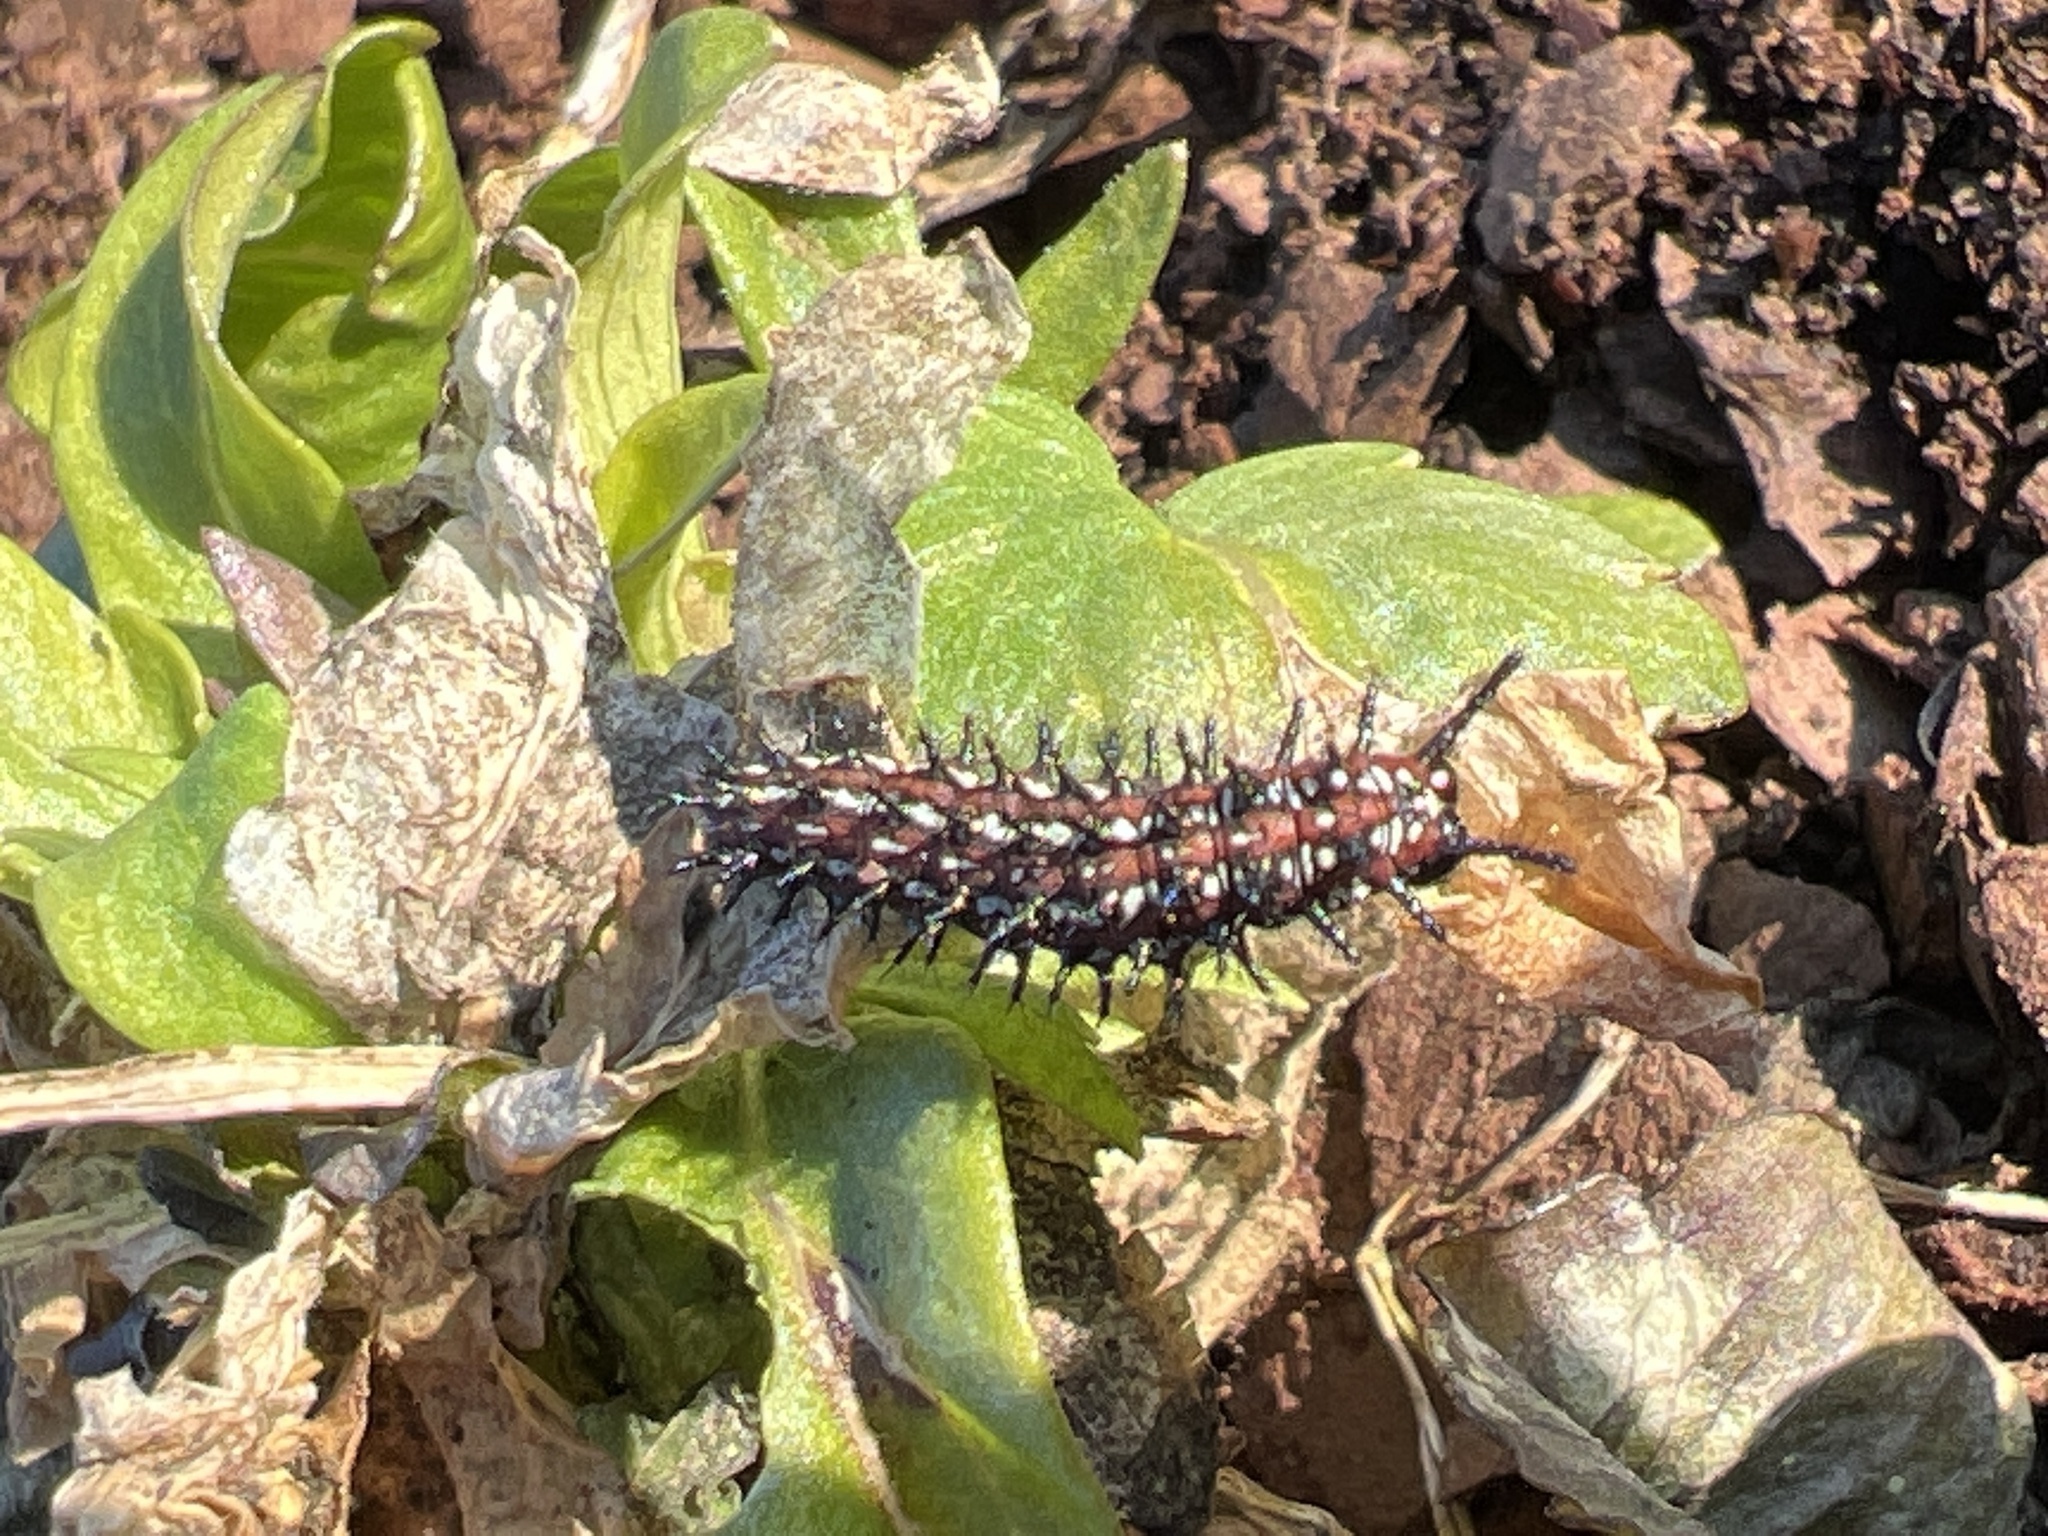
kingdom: Animalia
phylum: Arthropoda
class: Insecta
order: Lepidoptera
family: Nymphalidae
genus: Euptoieta
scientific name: Euptoieta claudia
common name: Variegated fritillary
